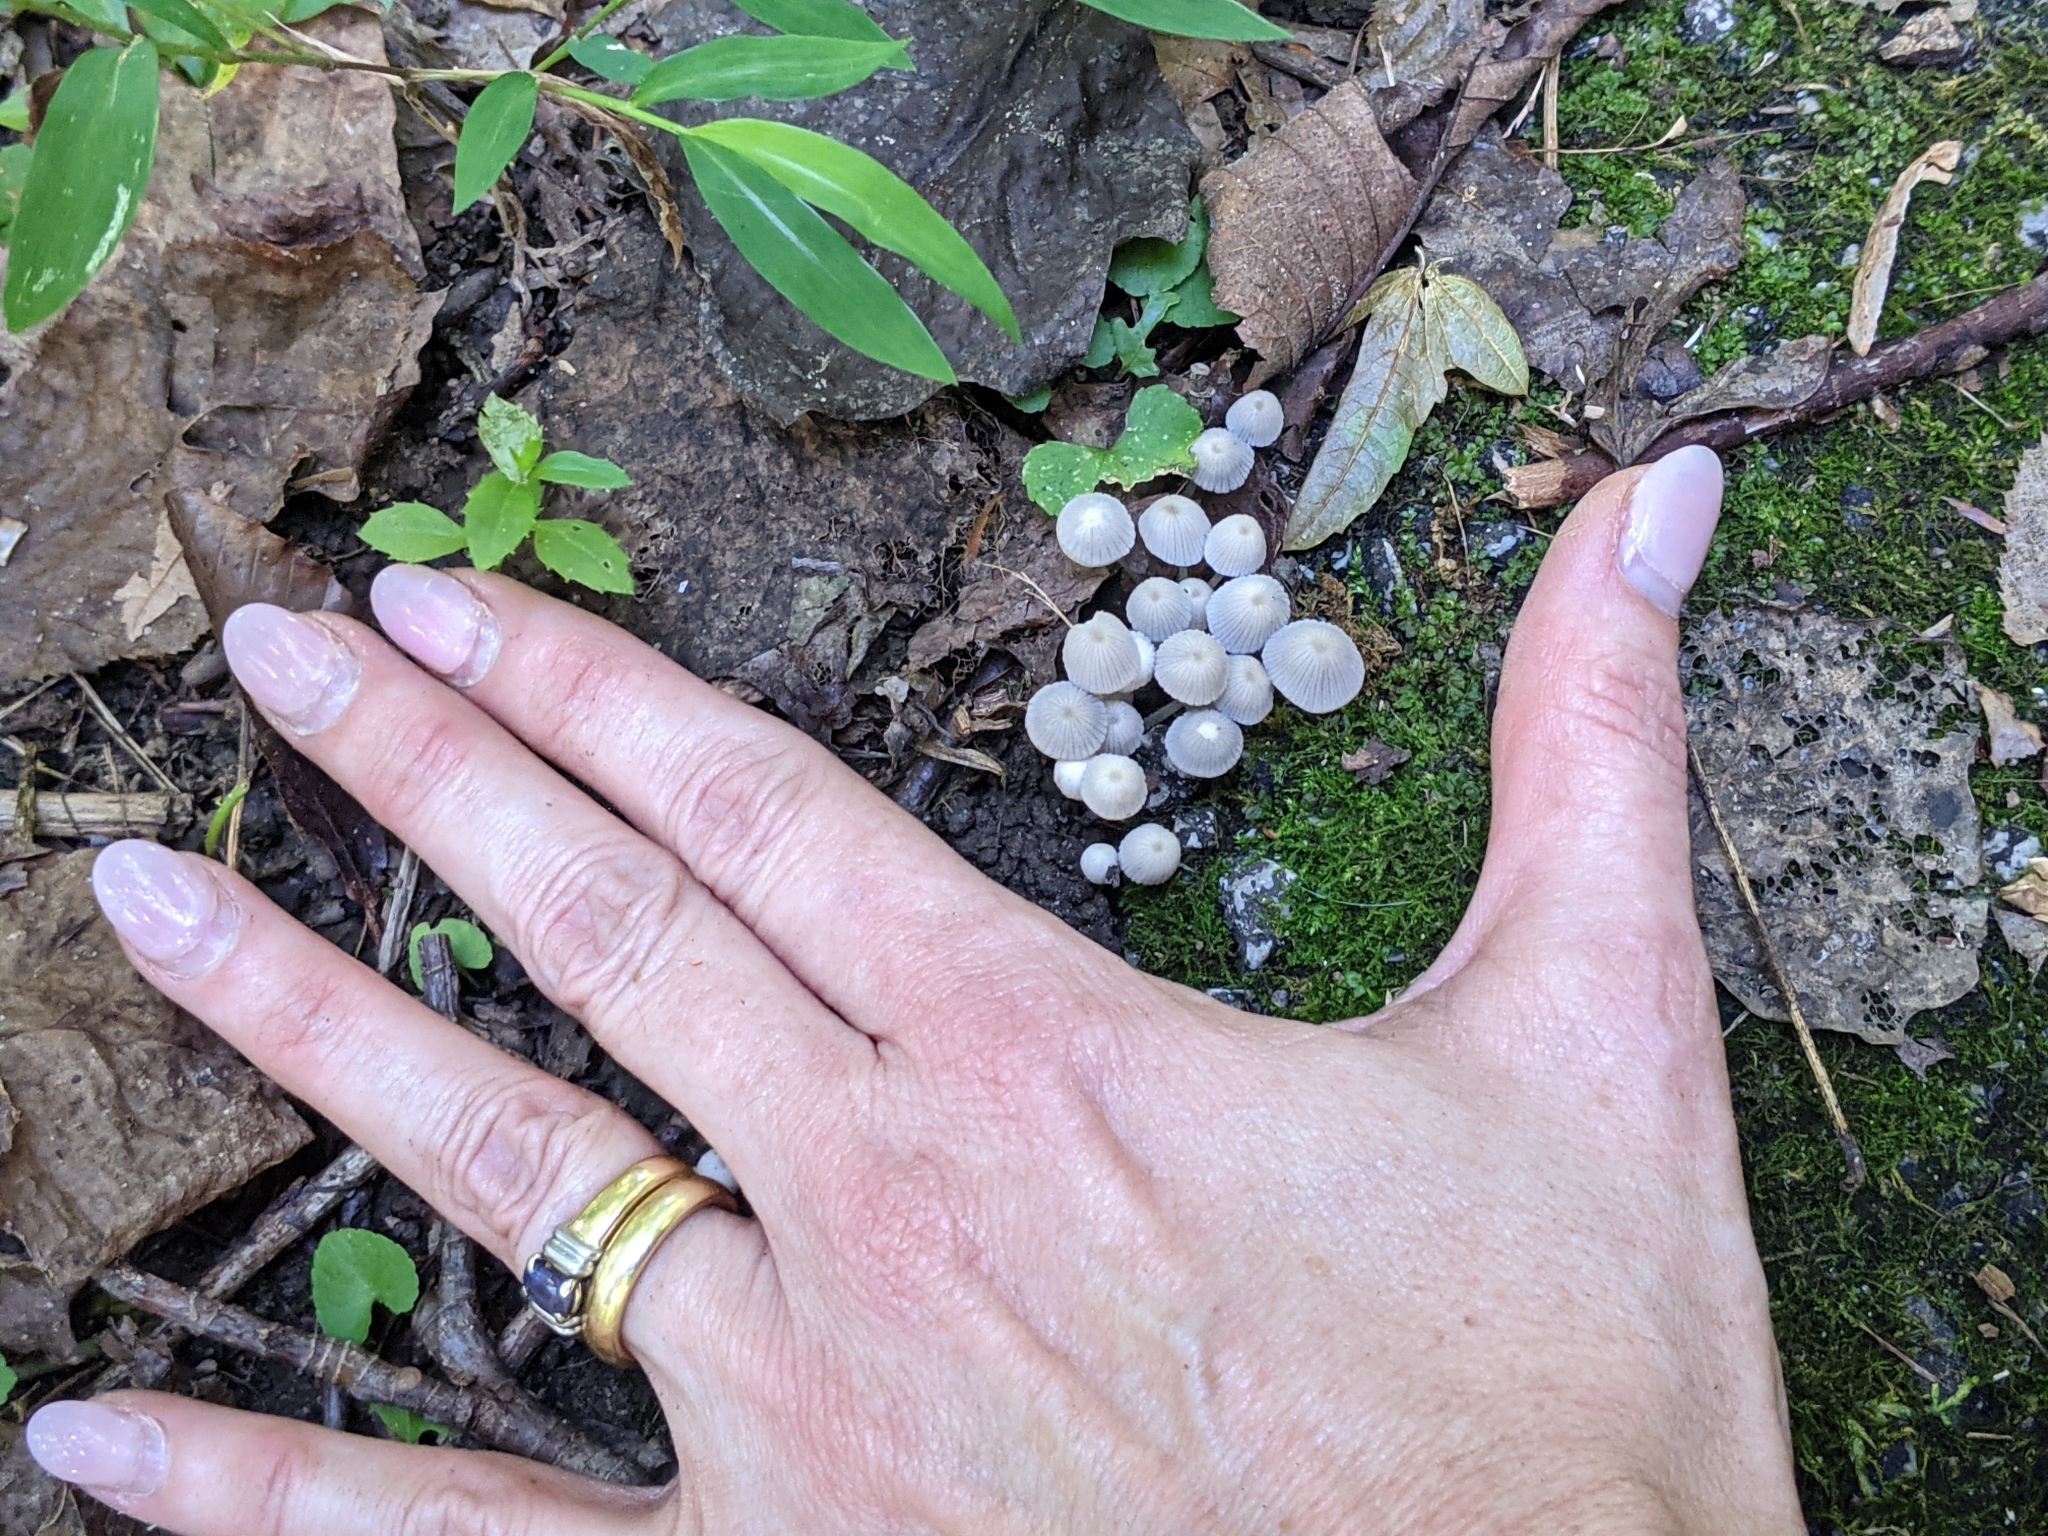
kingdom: Fungi
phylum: Basidiomycota
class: Agaricomycetes
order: Agaricales
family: Psathyrellaceae
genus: Coprinellus
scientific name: Coprinellus disseminatus
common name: Fairies' bonnets
